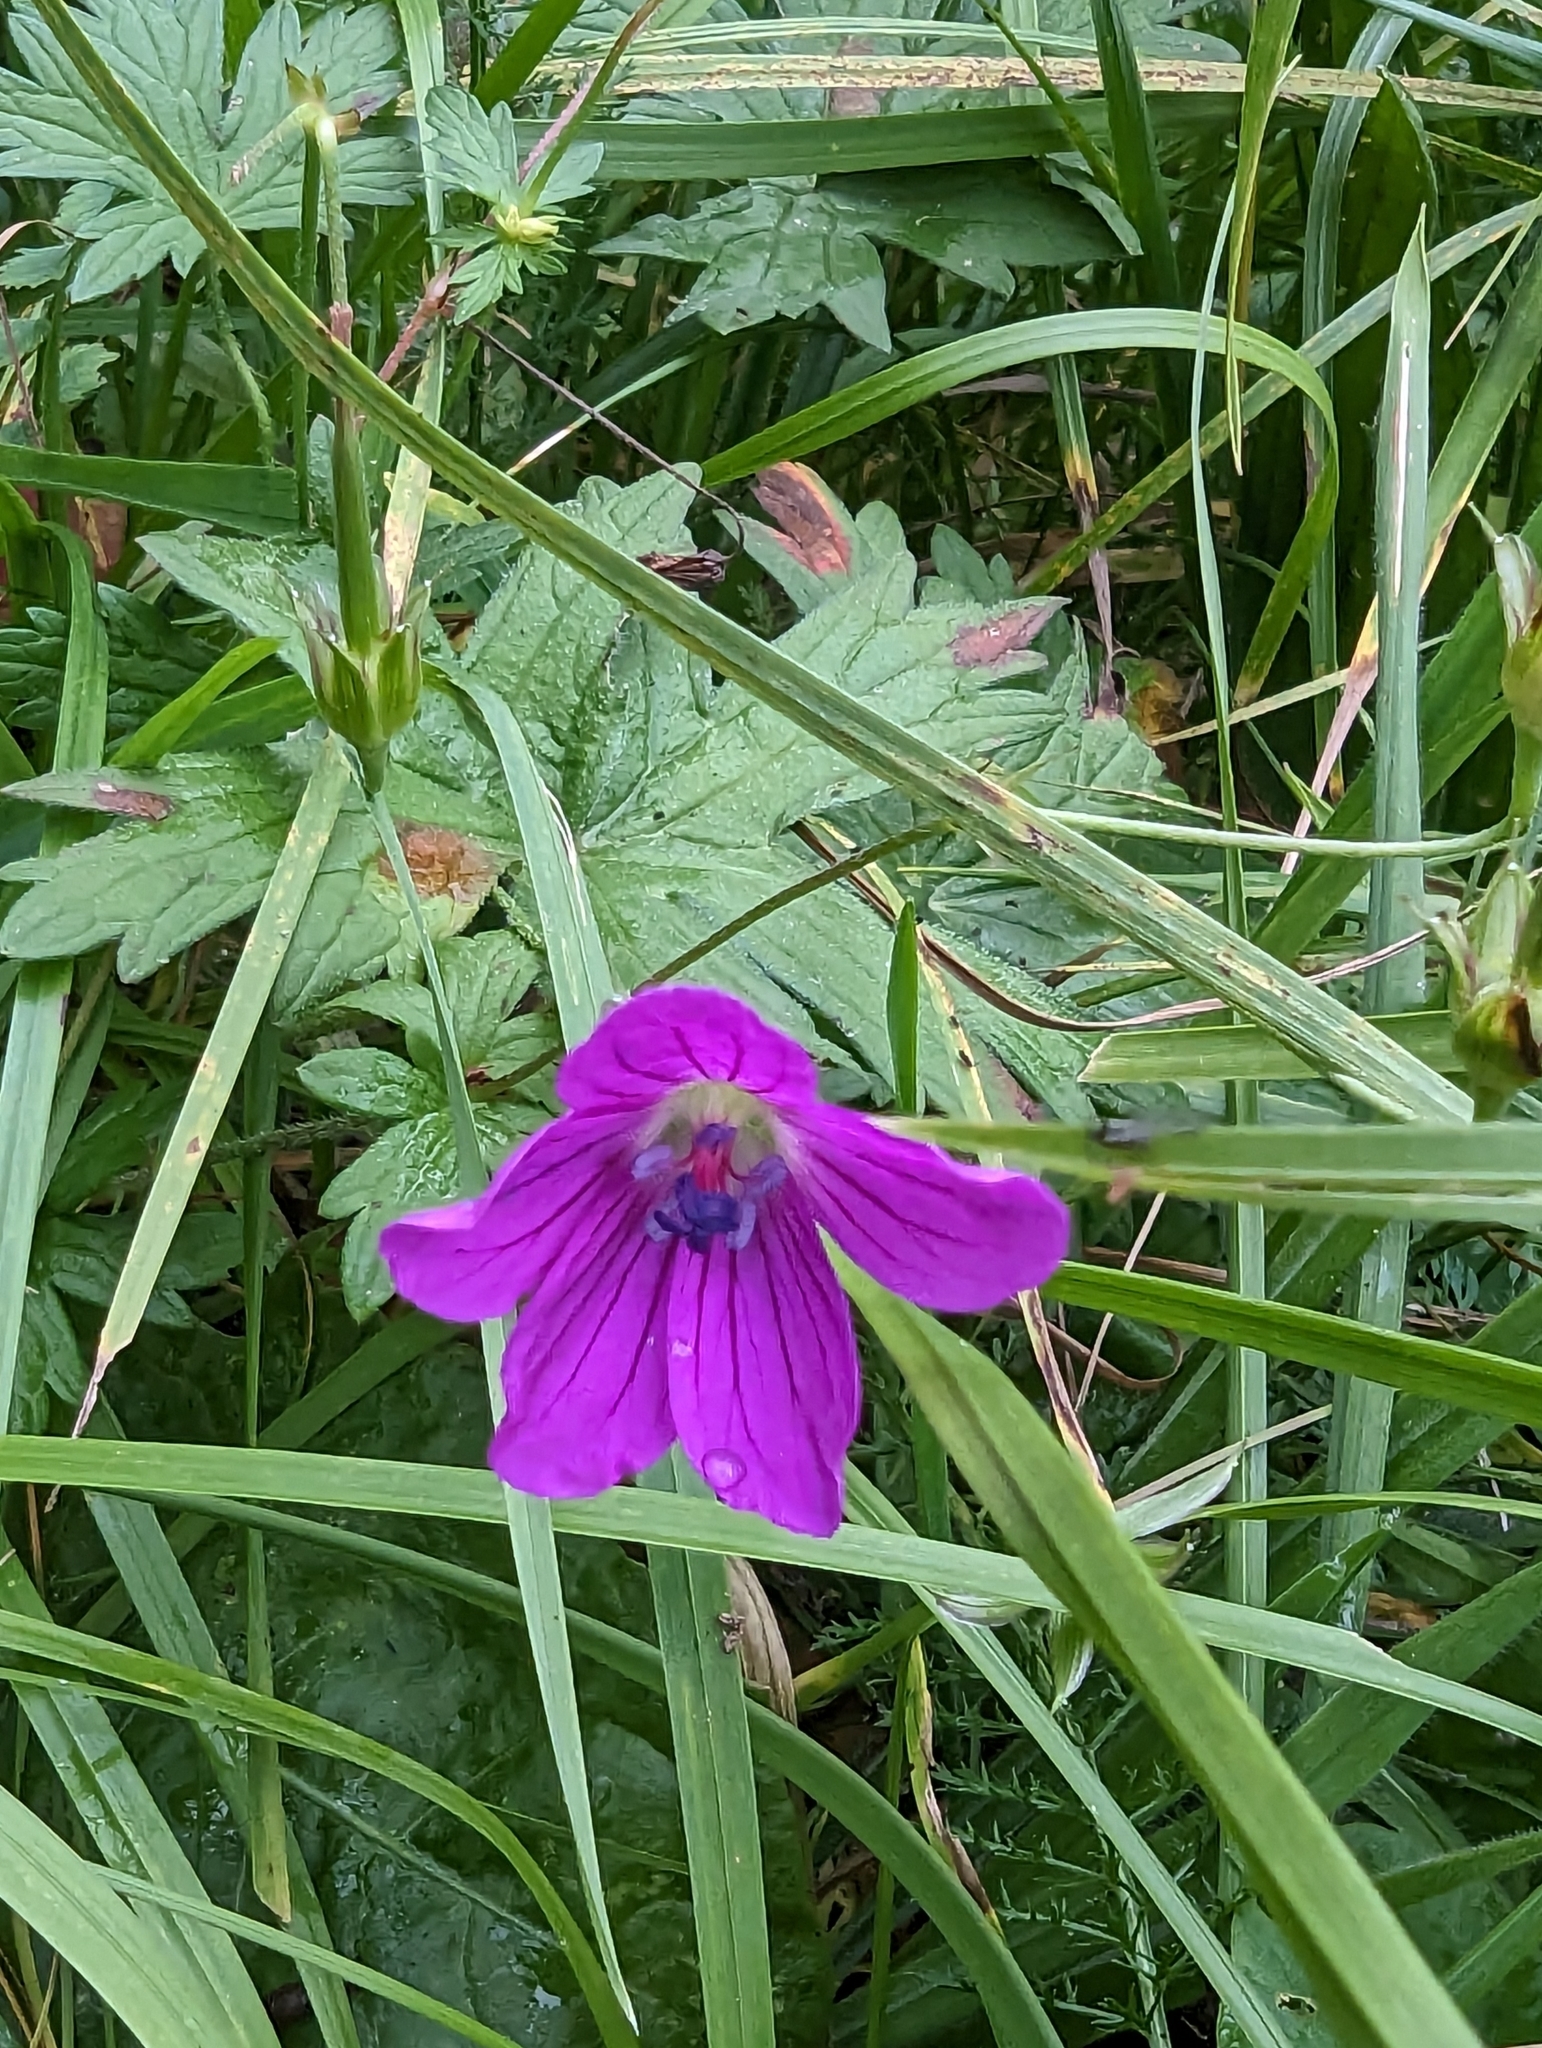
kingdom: Plantae
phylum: Tracheophyta
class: Magnoliopsida
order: Geraniales
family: Geraniaceae
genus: Geranium
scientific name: Geranium palustre
